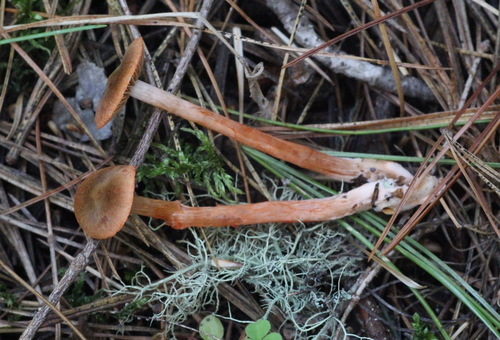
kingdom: Fungi
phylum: Basidiomycota
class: Agaricomycetes
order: Agaricales
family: Cortinariaceae
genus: Cortinarius
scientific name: Cortinarius
